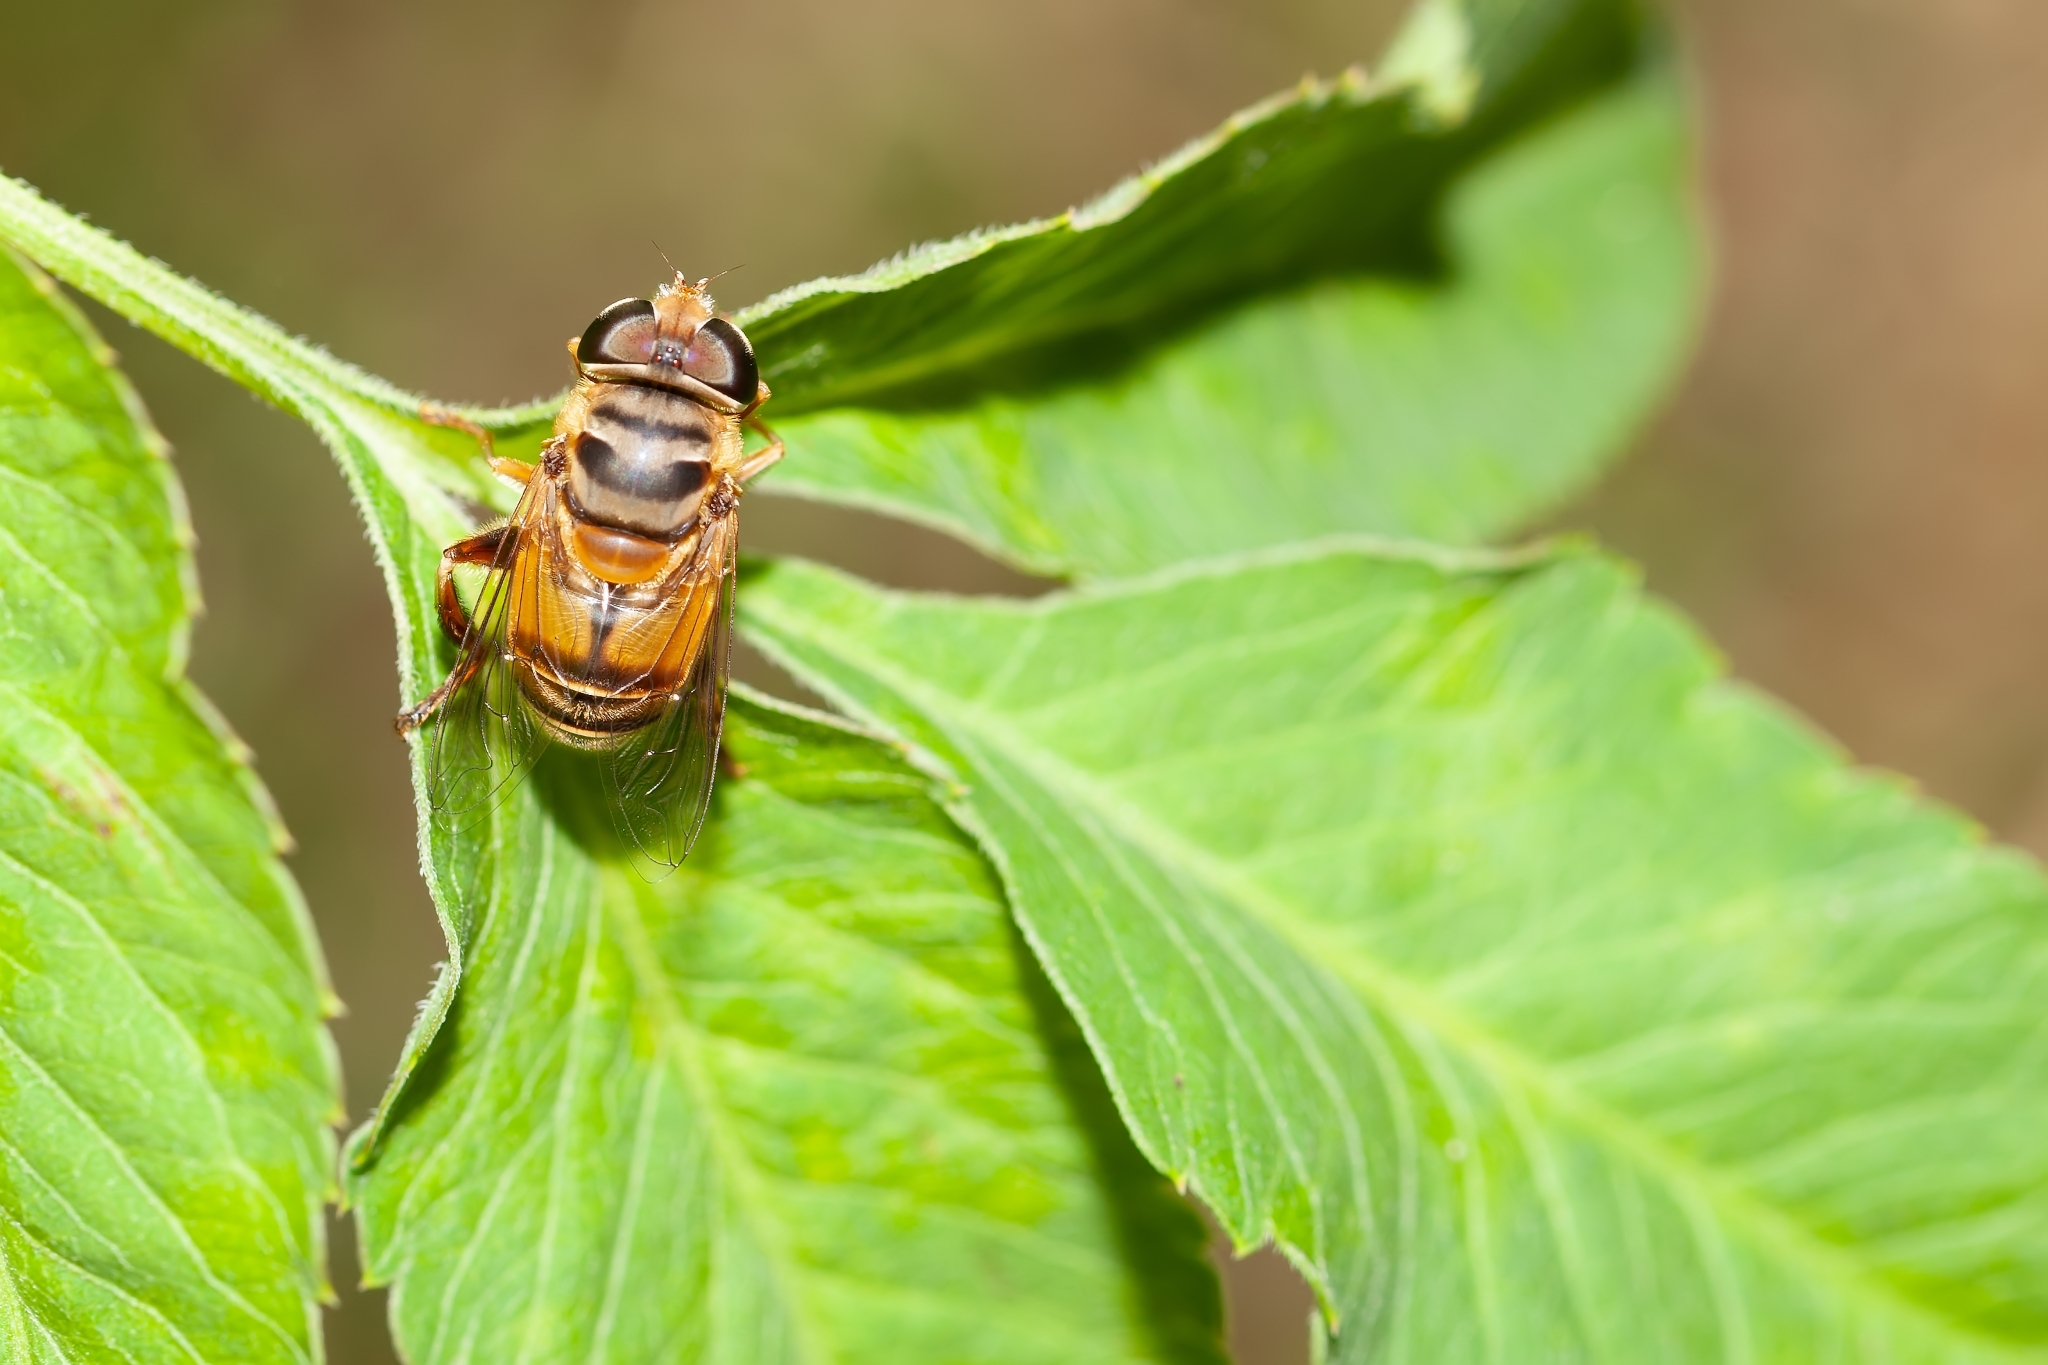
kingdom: Animalia
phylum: Arthropoda
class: Insecta
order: Diptera
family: Syrphidae
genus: Palpada
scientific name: Palpada vinetorum
